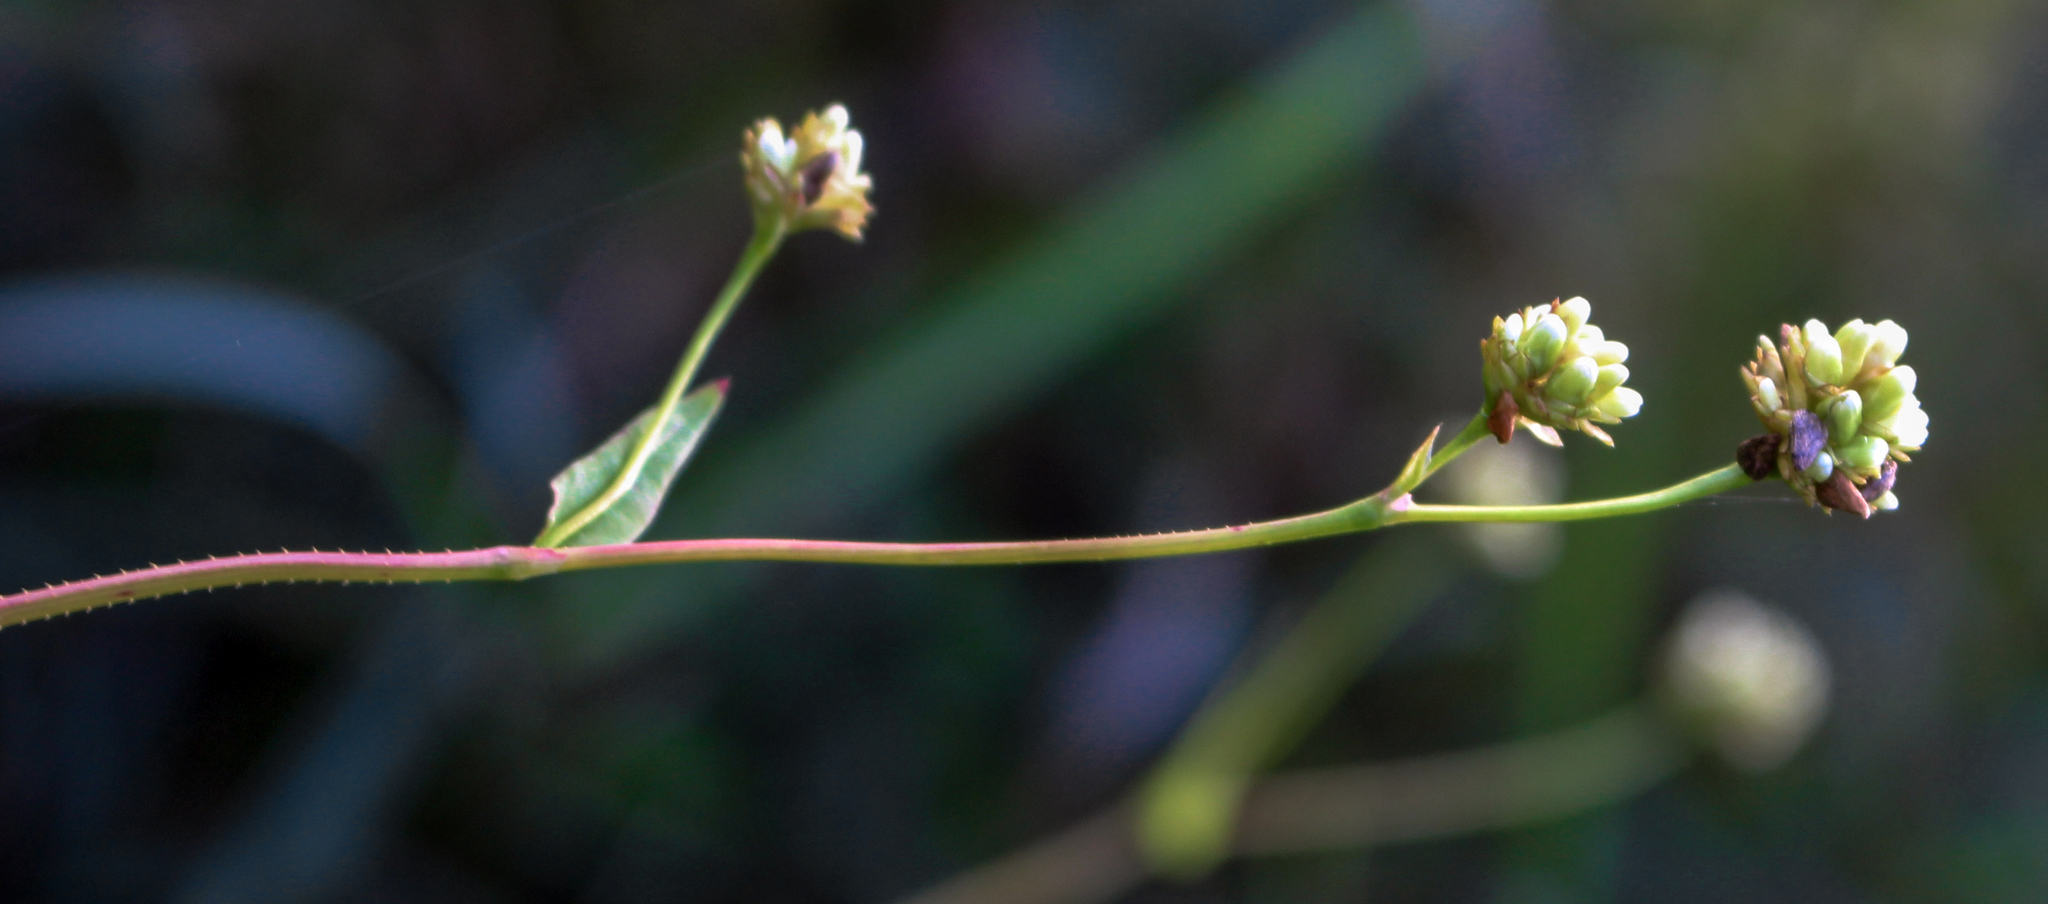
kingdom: Plantae
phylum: Tracheophyta
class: Magnoliopsida
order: Caryophyllales
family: Polygonaceae
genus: Persicaria
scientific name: Persicaria sagittata
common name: American tearthumb
